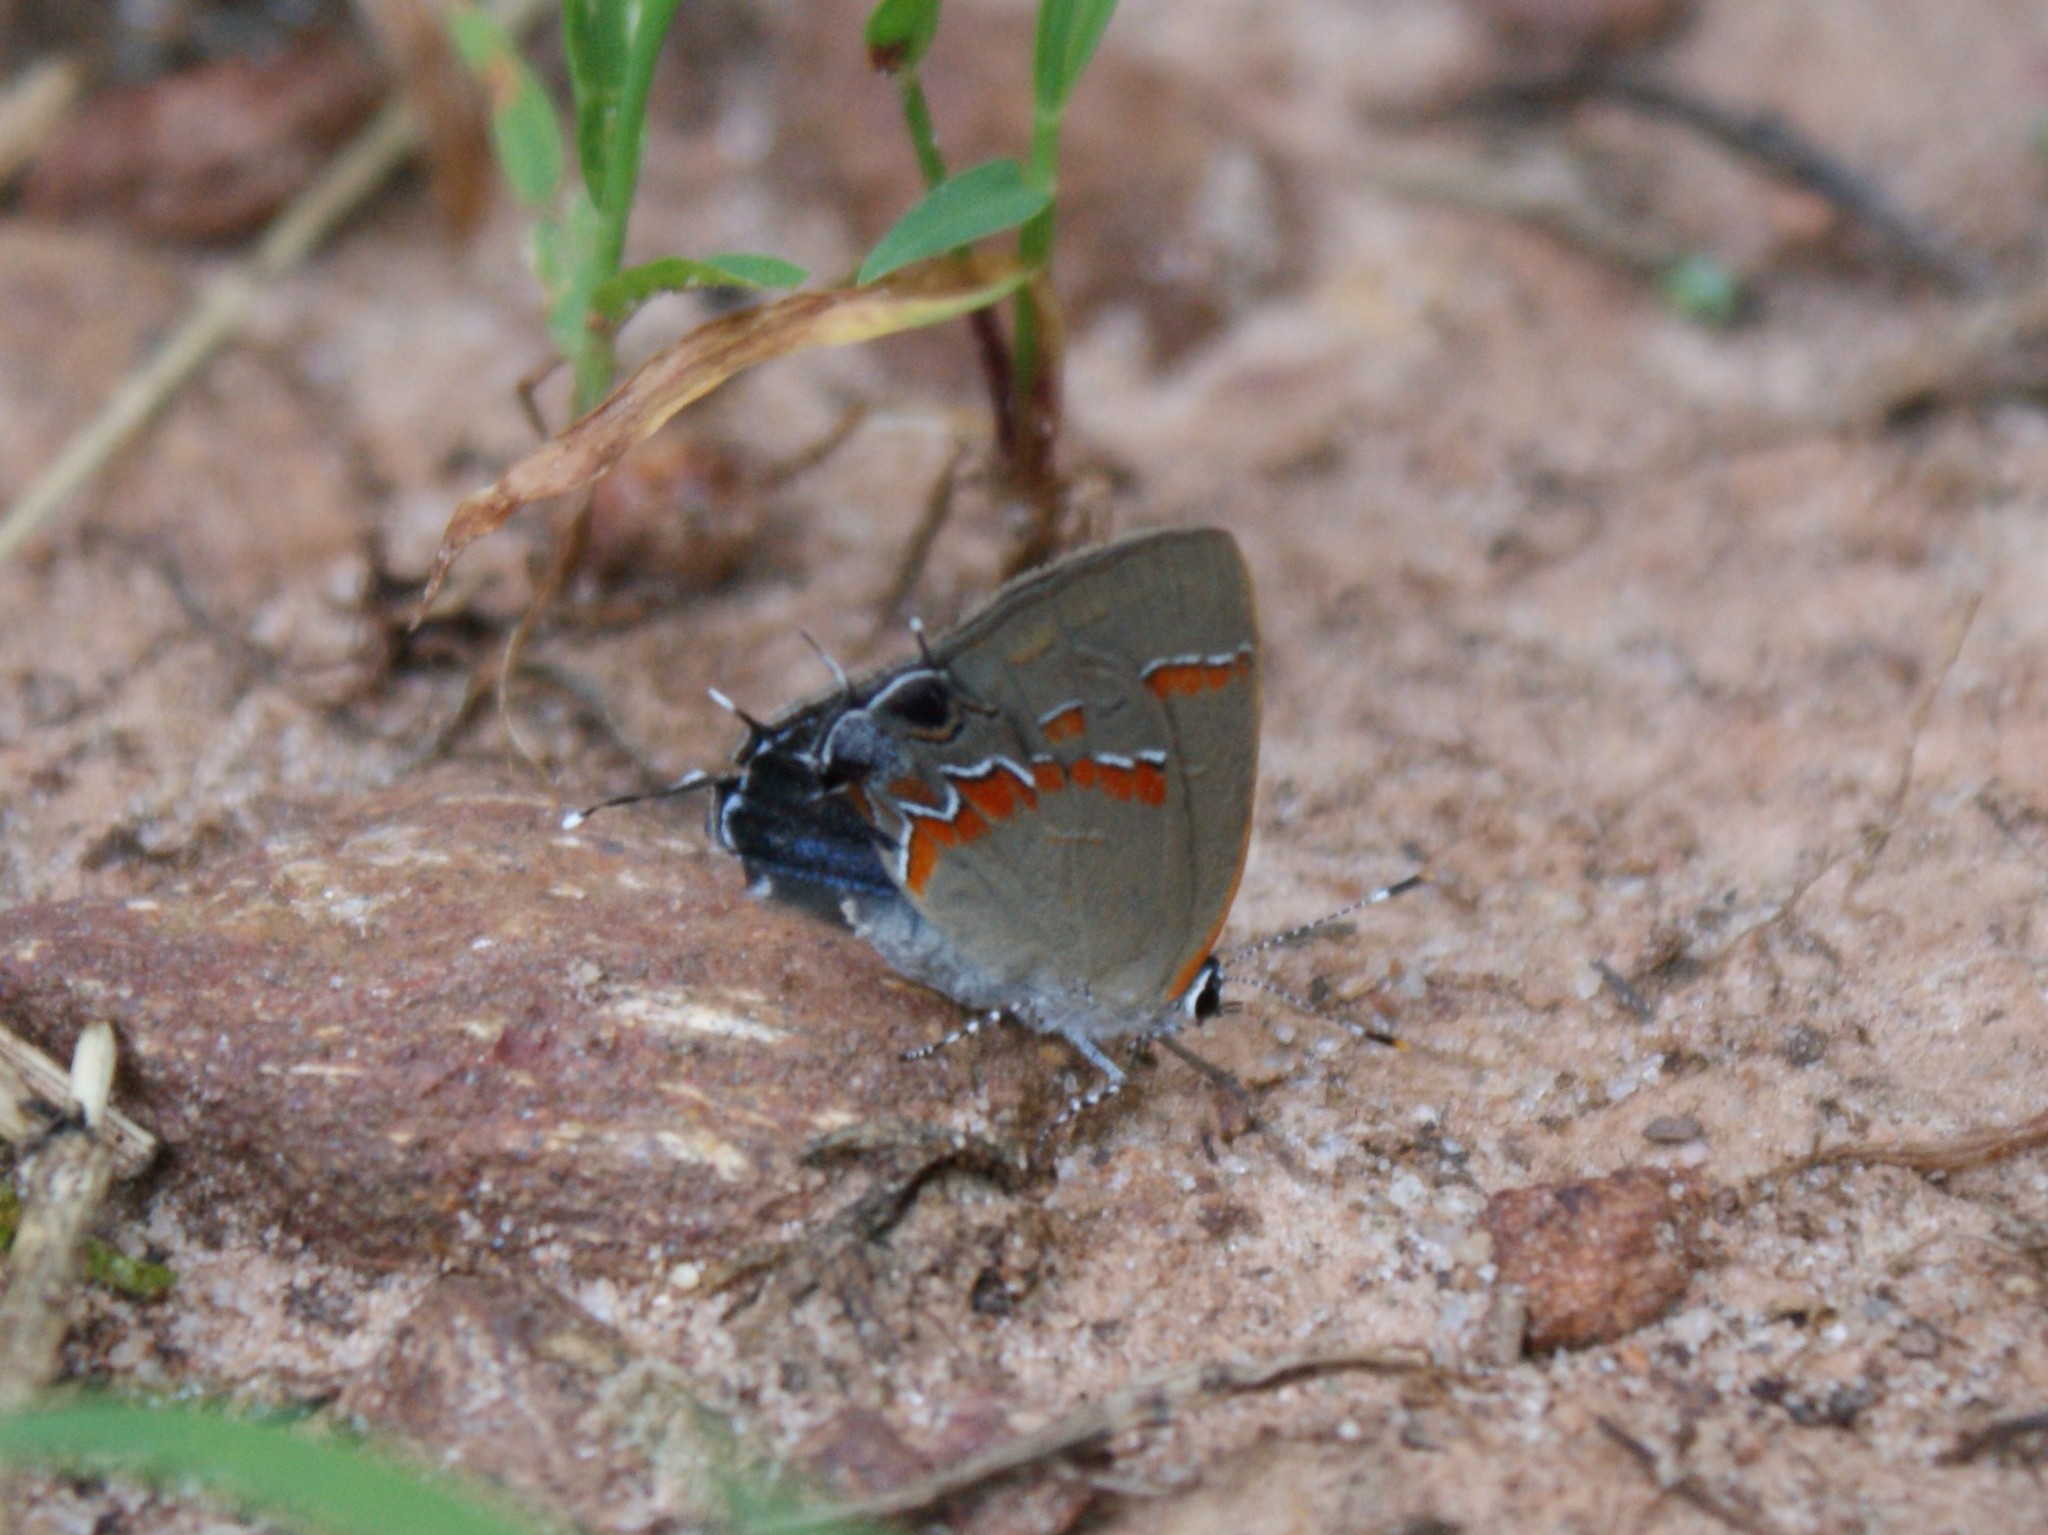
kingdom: Animalia
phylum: Arthropoda
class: Insecta
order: Lepidoptera
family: Lycaenidae
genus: Calycopis
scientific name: Calycopis cecrops
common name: Red-banded hairstreak
